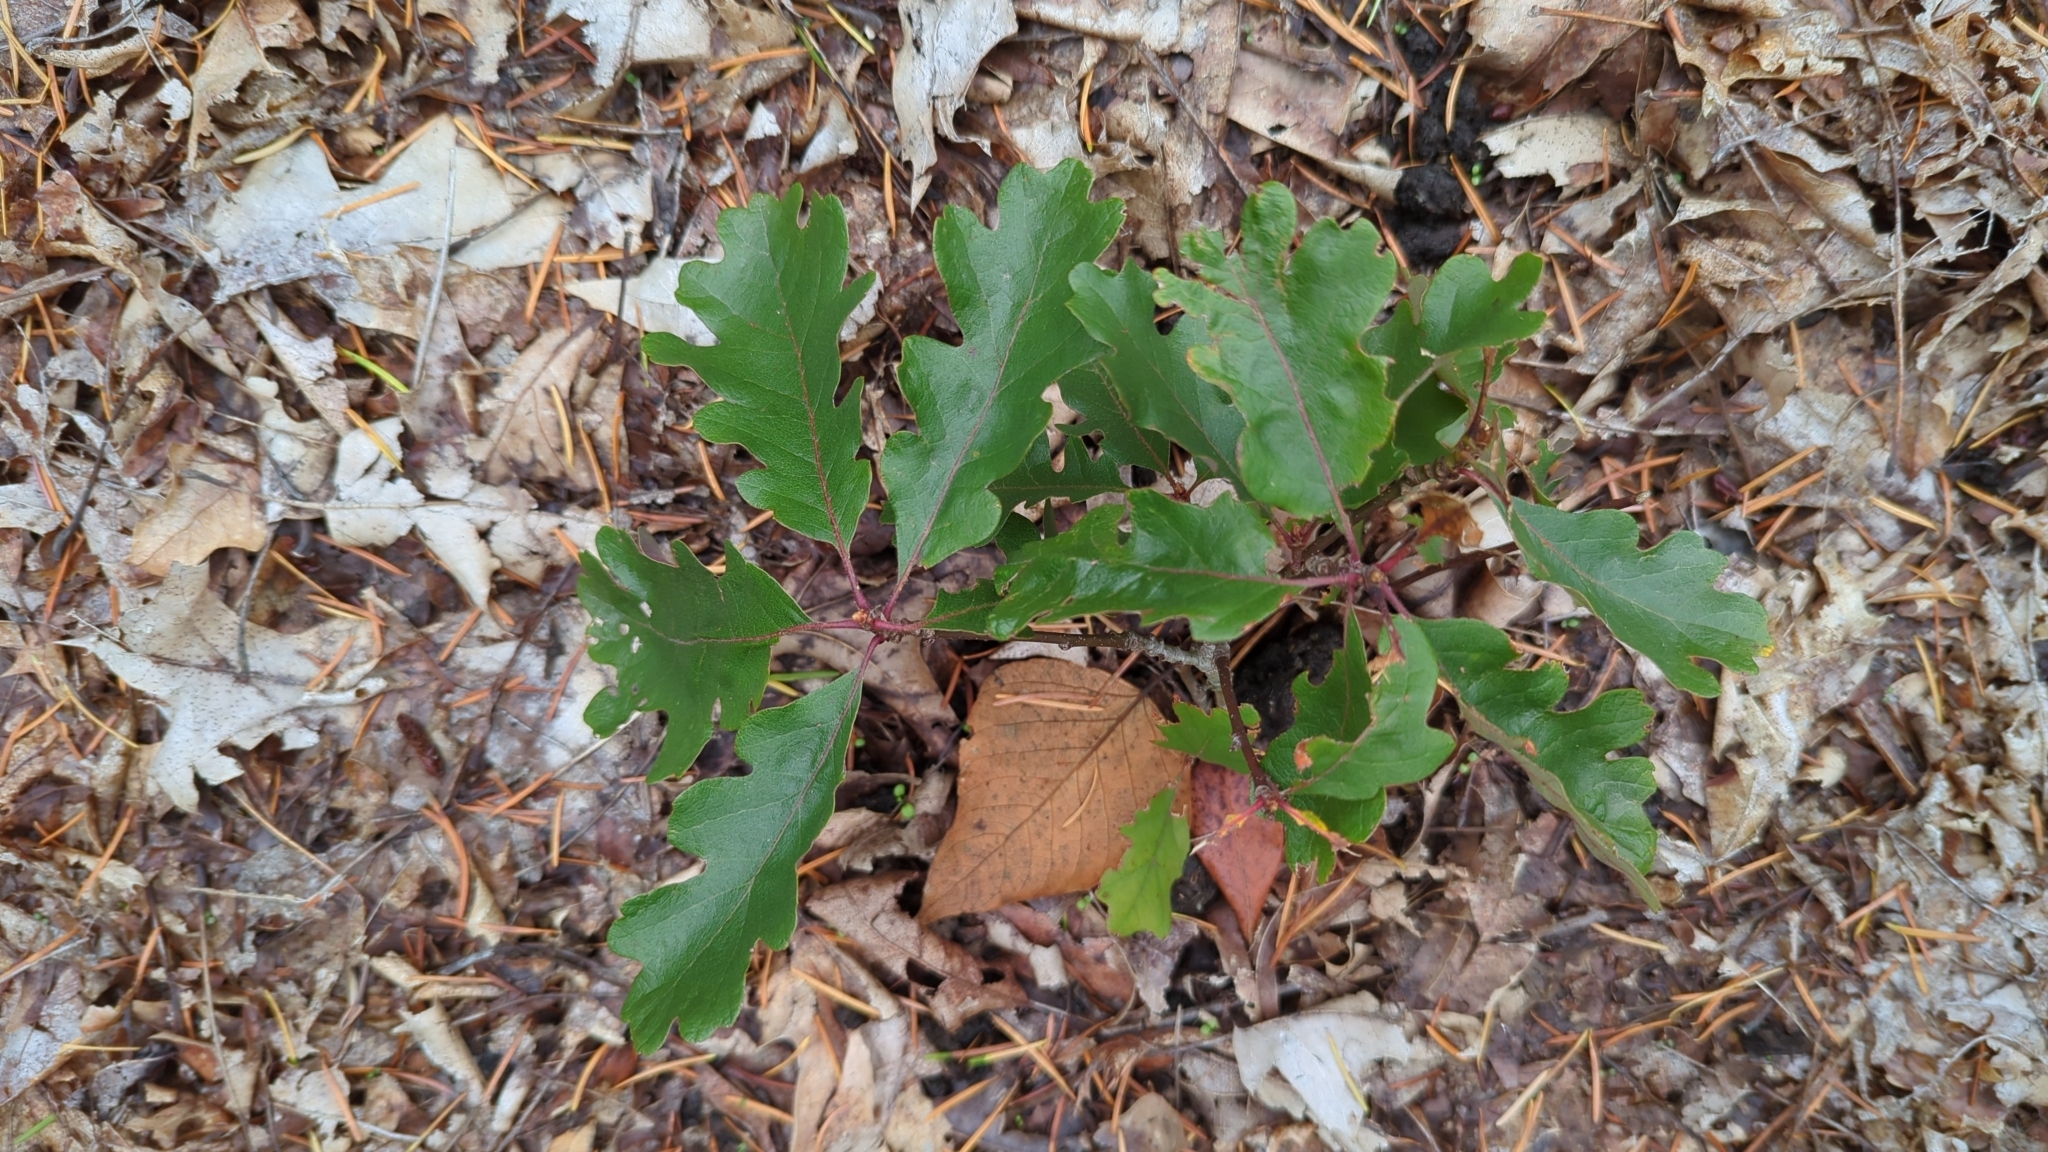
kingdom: Plantae
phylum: Tracheophyta
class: Magnoliopsida
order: Fagales
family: Fagaceae
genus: Quercus
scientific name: Quercus garryana
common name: Garry oak
